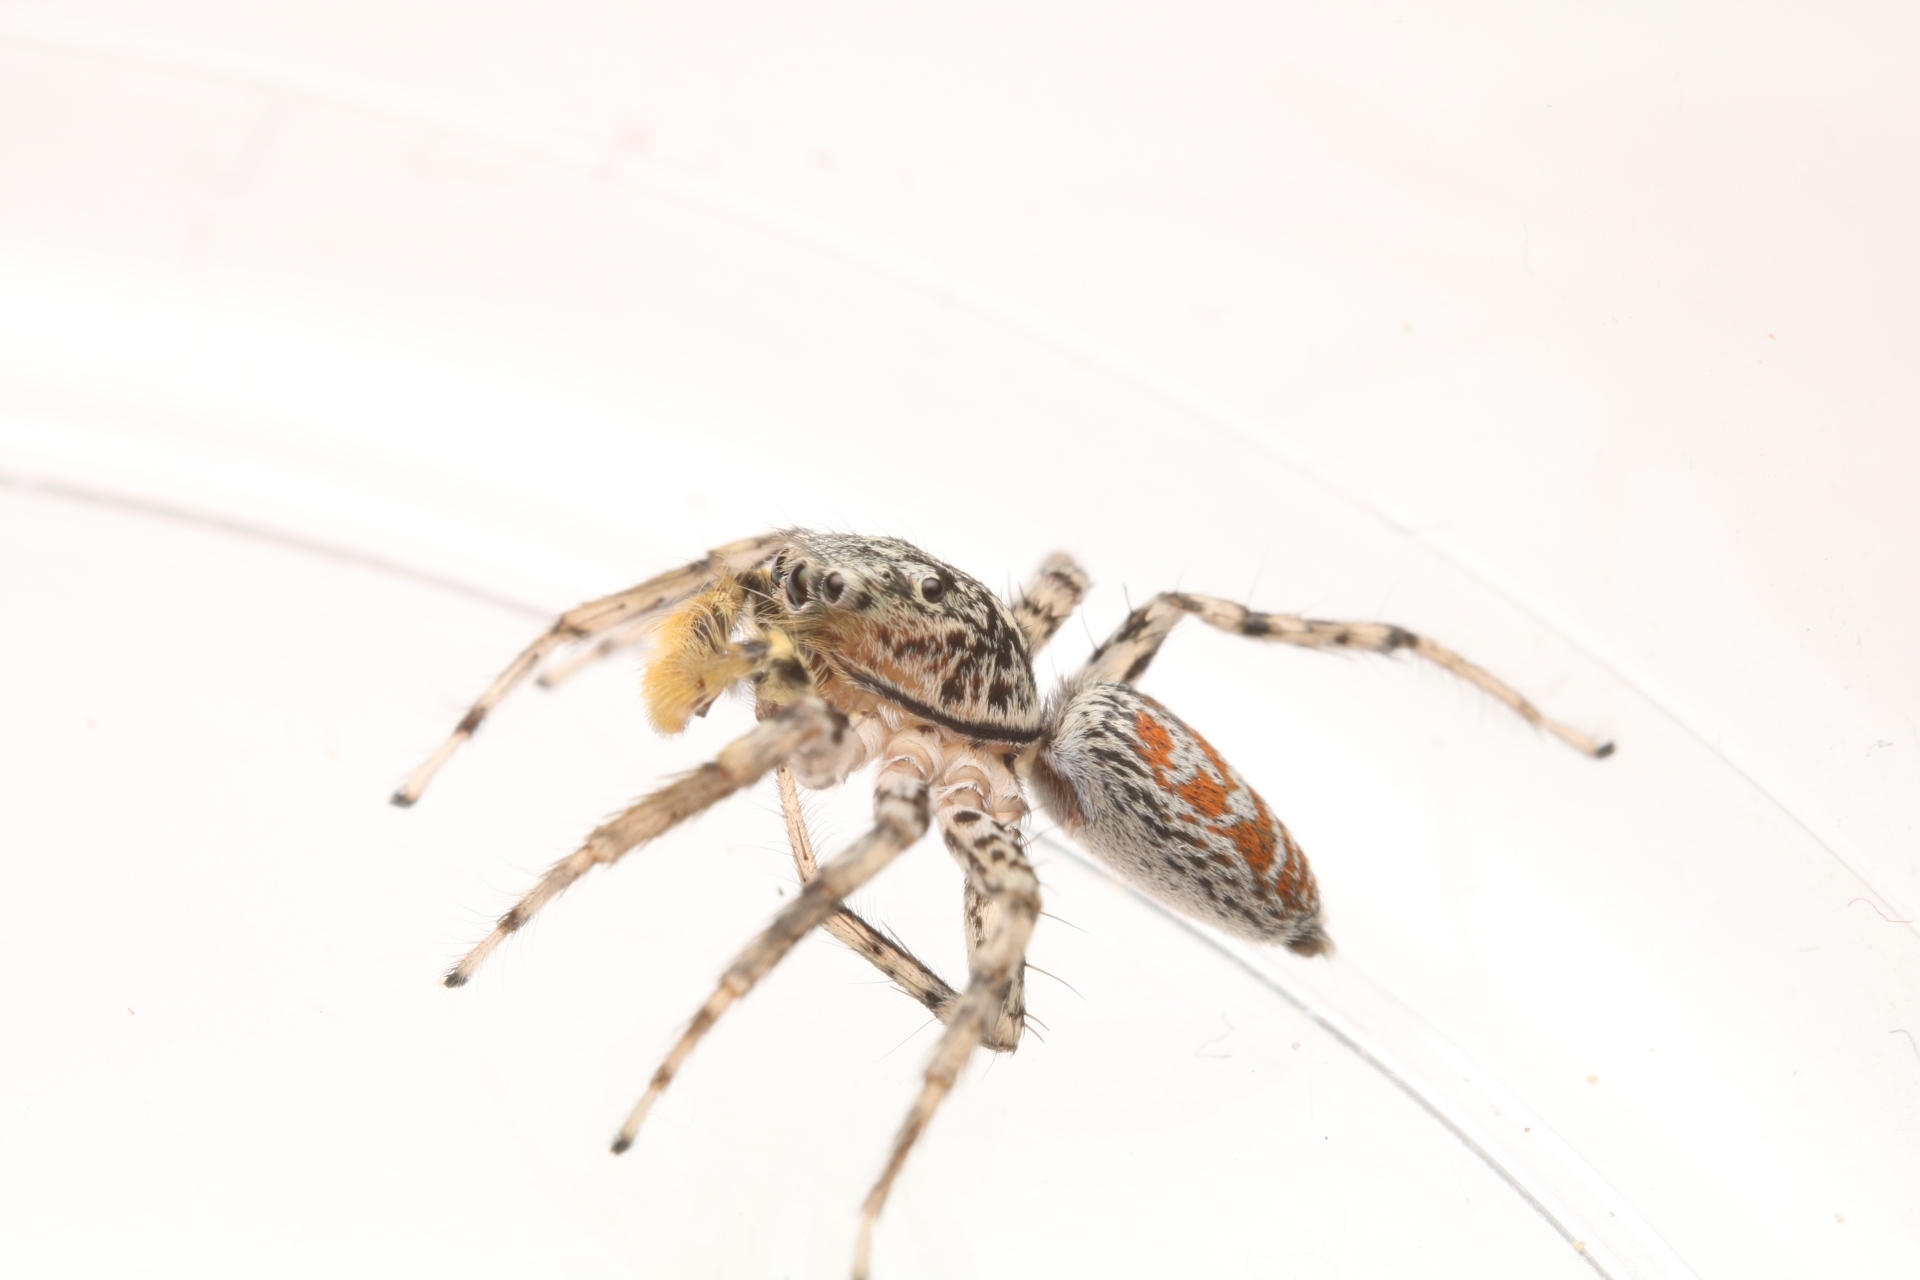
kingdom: Animalia
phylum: Arthropoda
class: Arachnida
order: Araneae
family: Salticidae
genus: Maevia
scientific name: Maevia inclemens
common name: Dimorphic jumper
